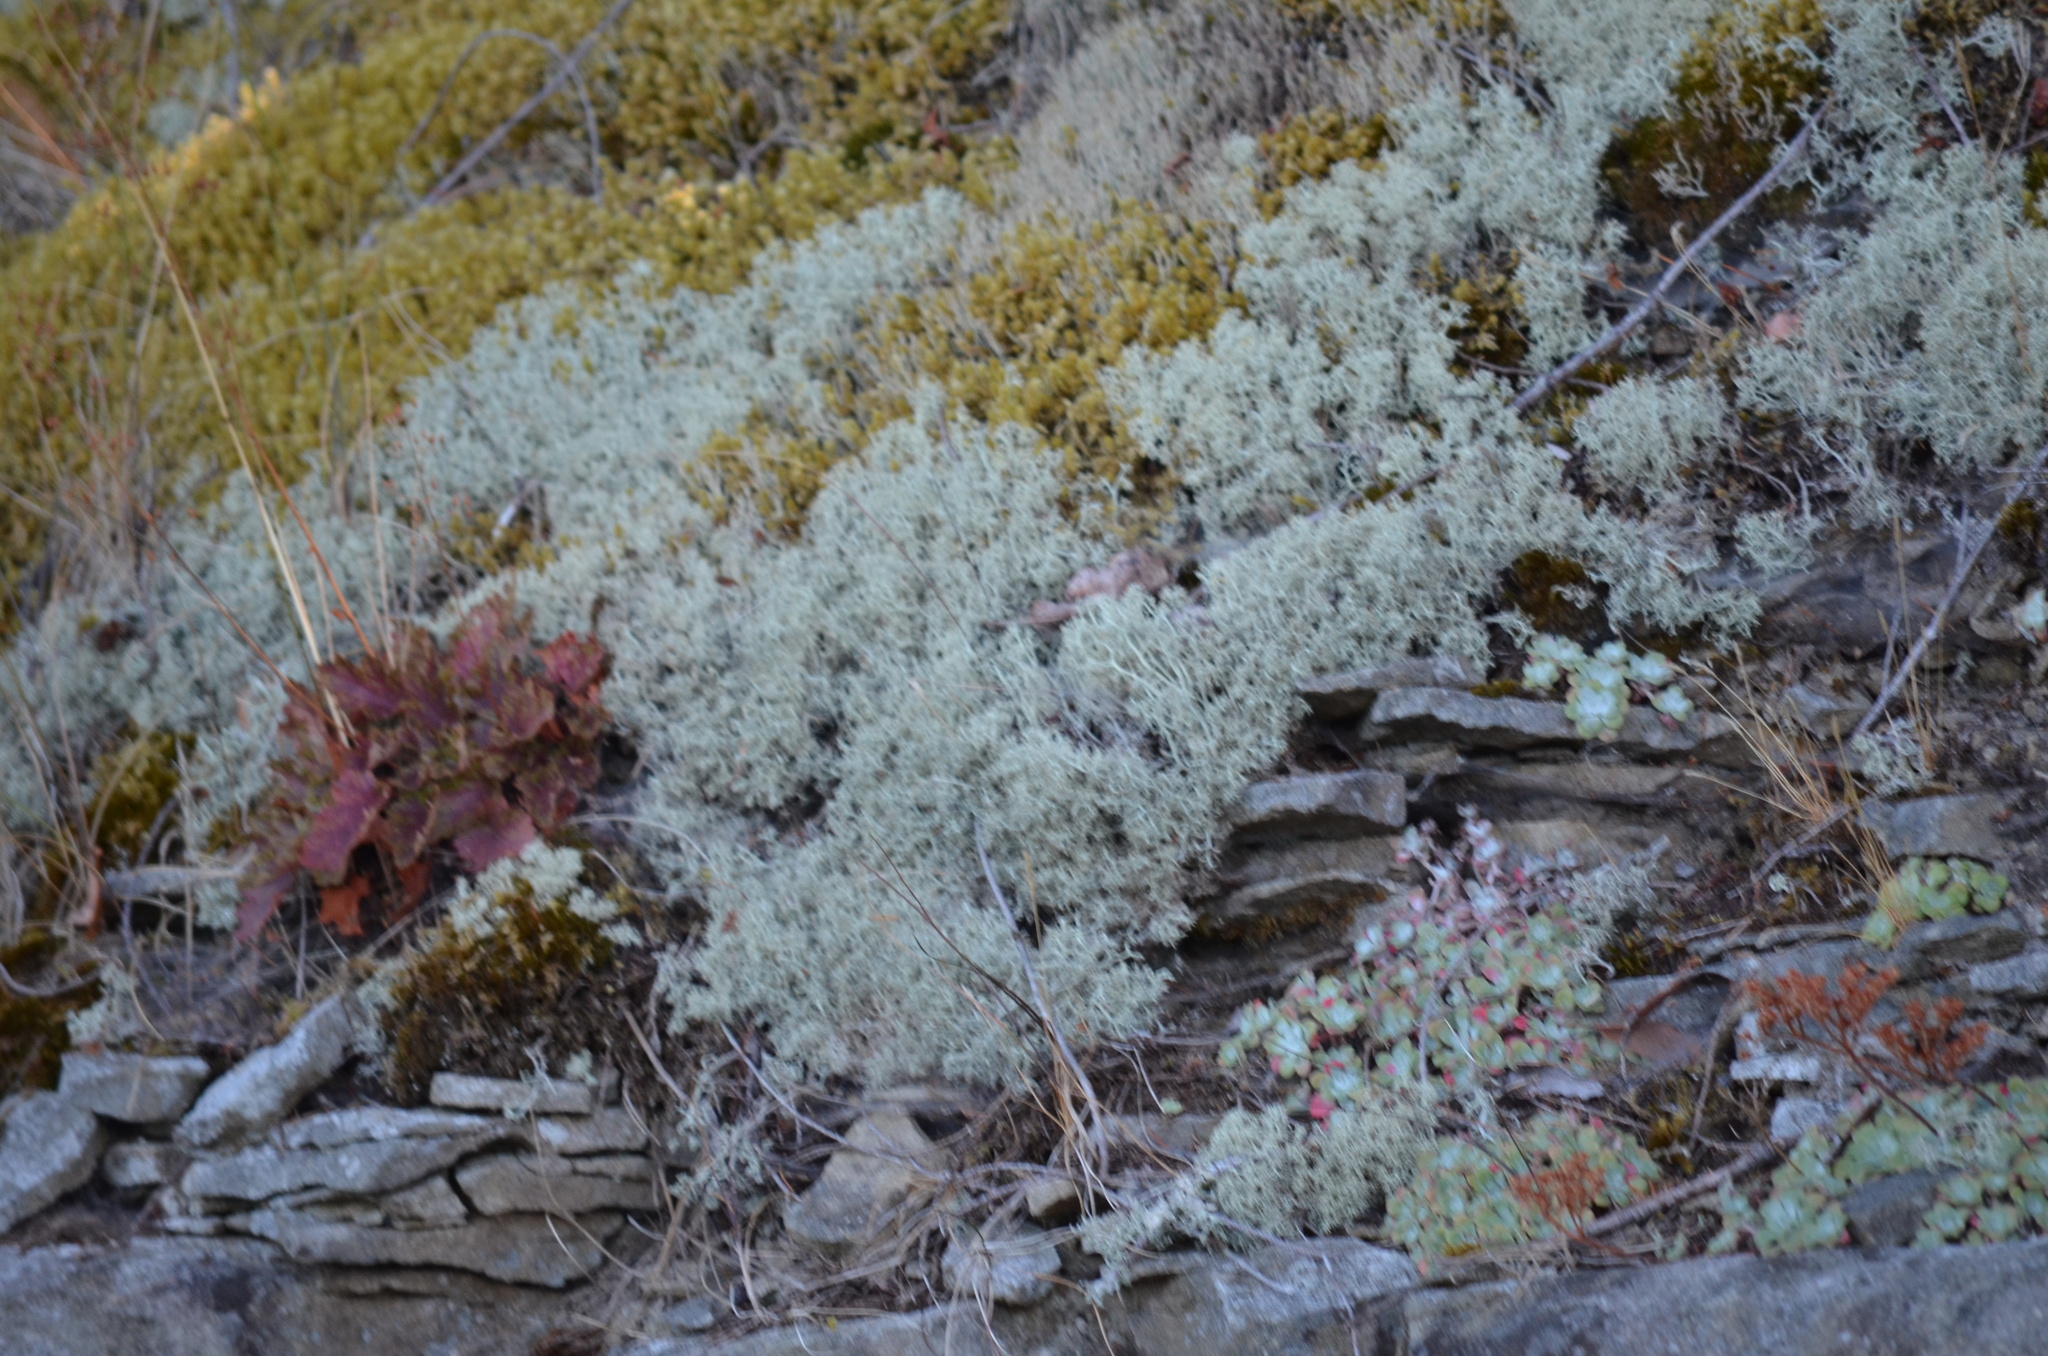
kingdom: Fungi
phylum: Ascomycota
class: Lecanoromycetes
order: Lecanorales
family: Cladoniaceae
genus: Cladonia
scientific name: Cladonia portentosa
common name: Reindeer lichen
